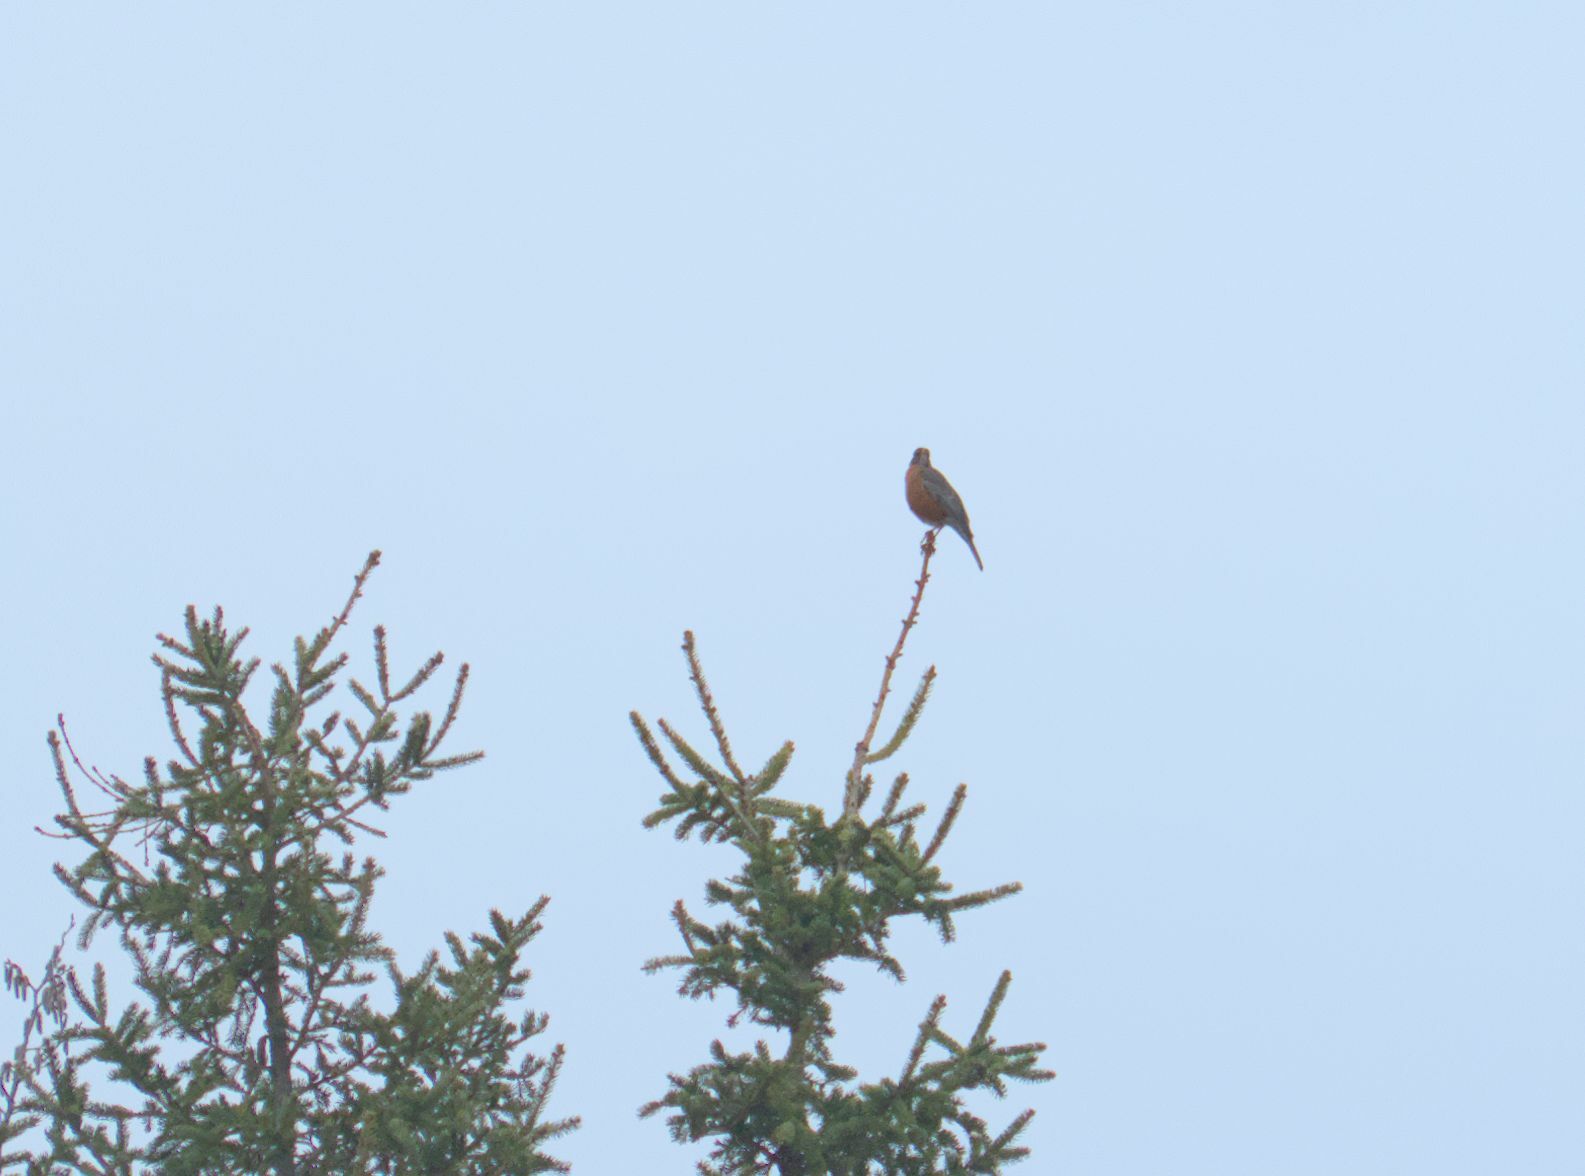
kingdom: Animalia
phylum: Chordata
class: Aves
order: Passeriformes
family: Turdidae
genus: Turdus
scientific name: Turdus migratorius
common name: American robin
